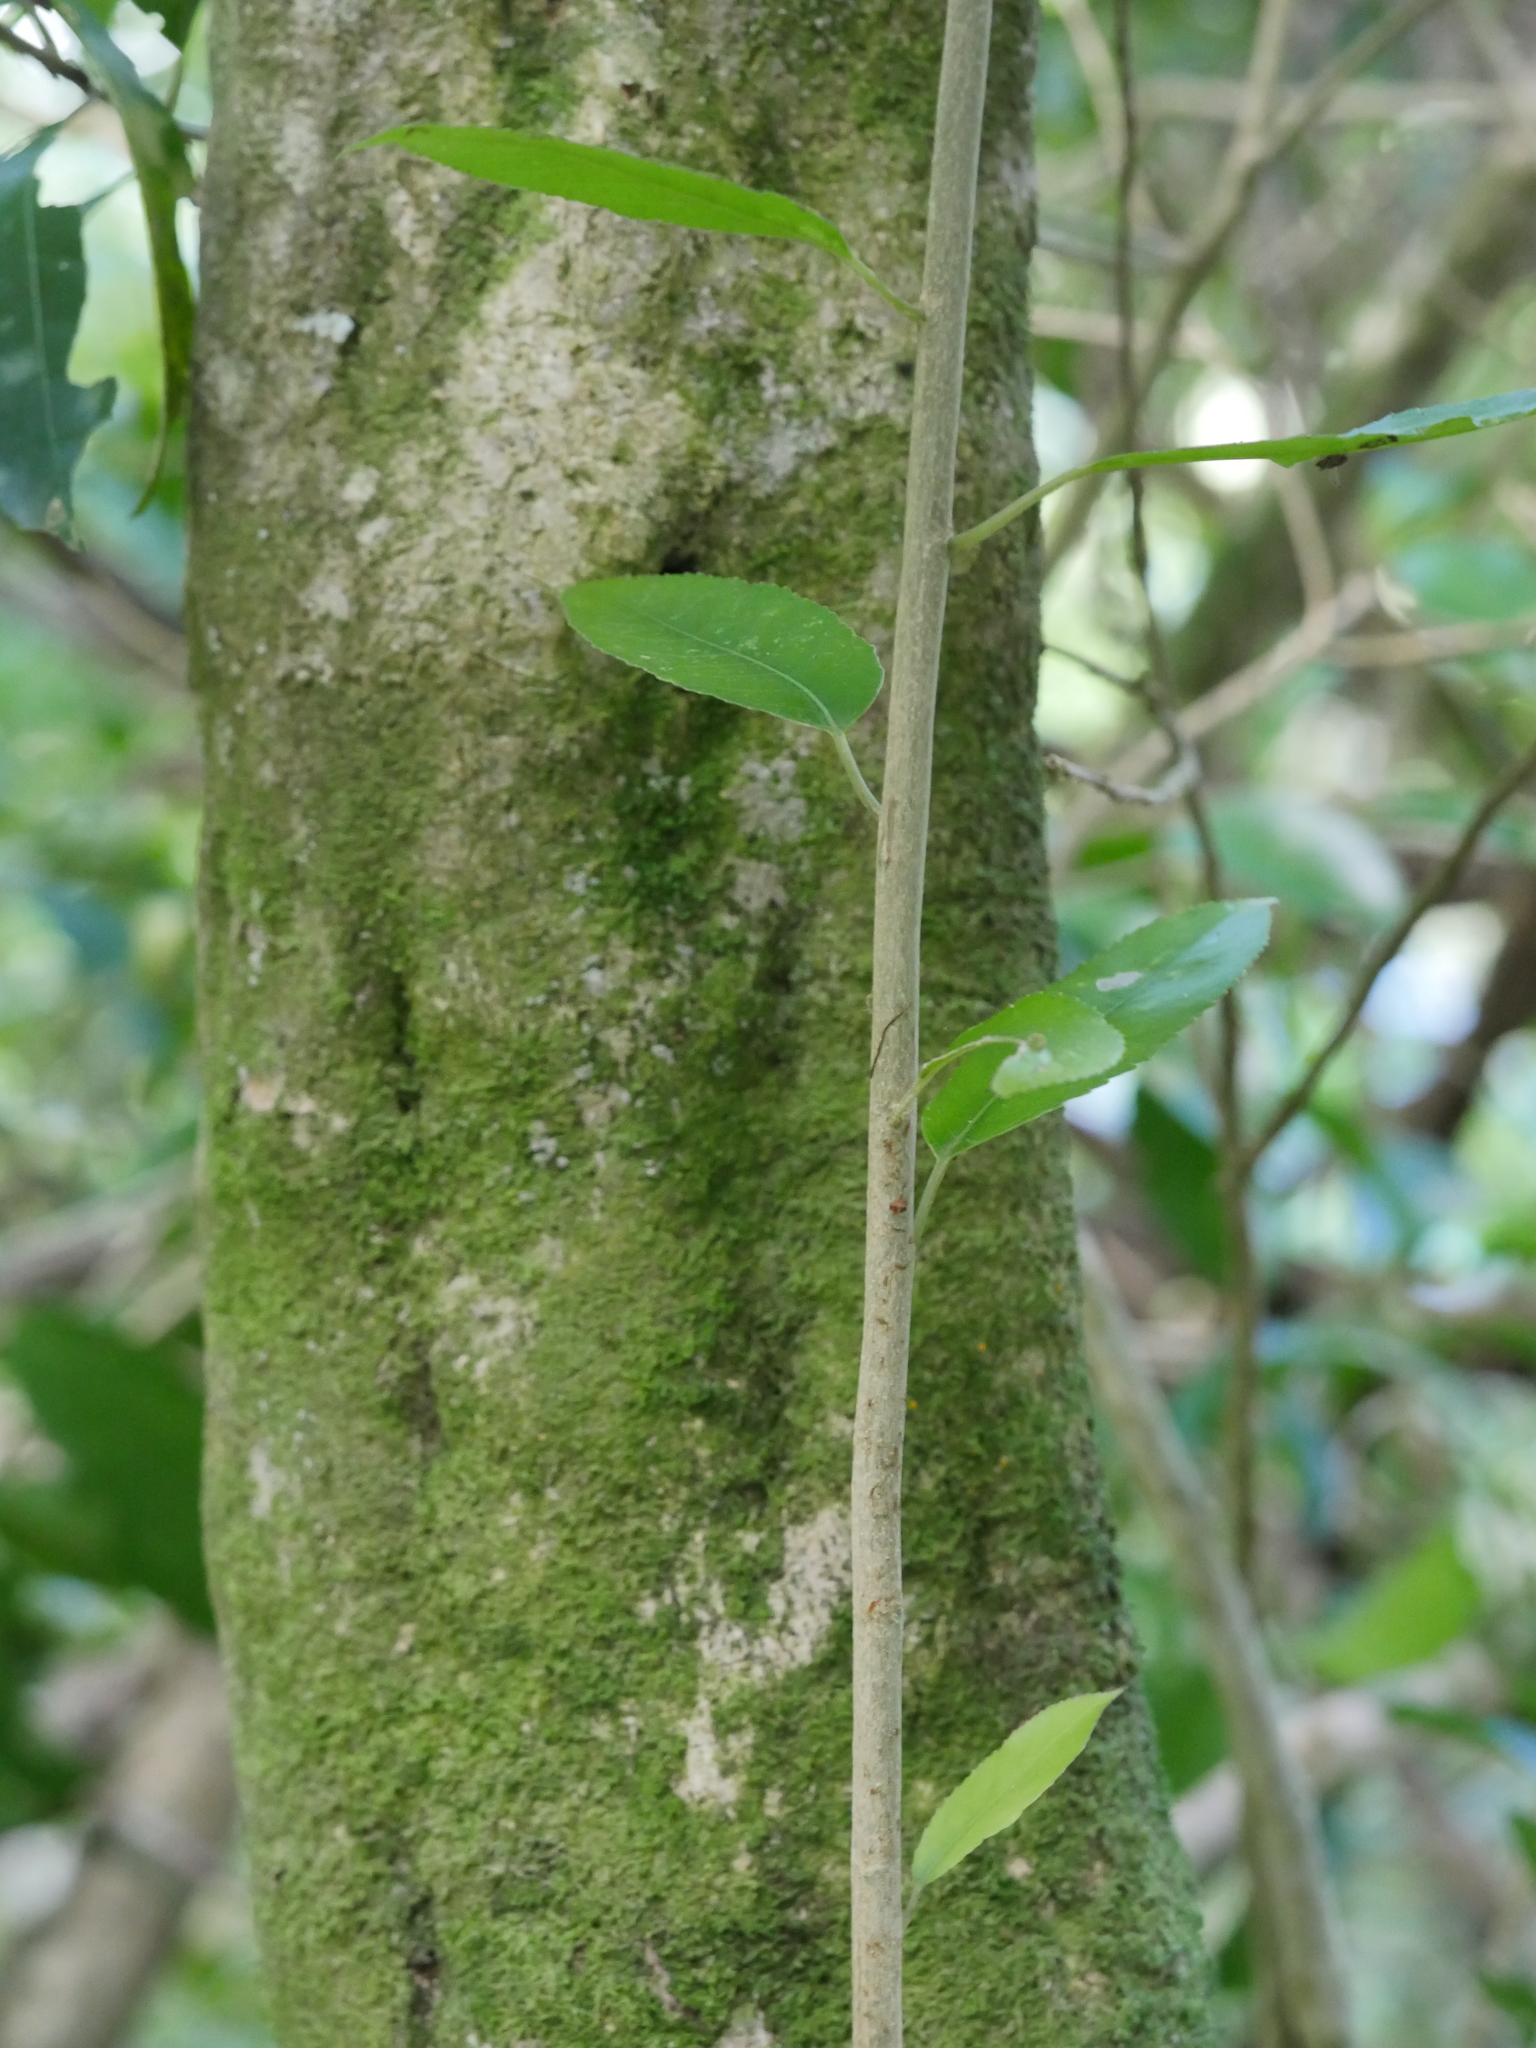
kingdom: Plantae
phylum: Tracheophyta
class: Magnoliopsida
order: Malpighiales
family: Violaceae
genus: Melicytus
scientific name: Melicytus ramiflorus
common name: Mahoe
